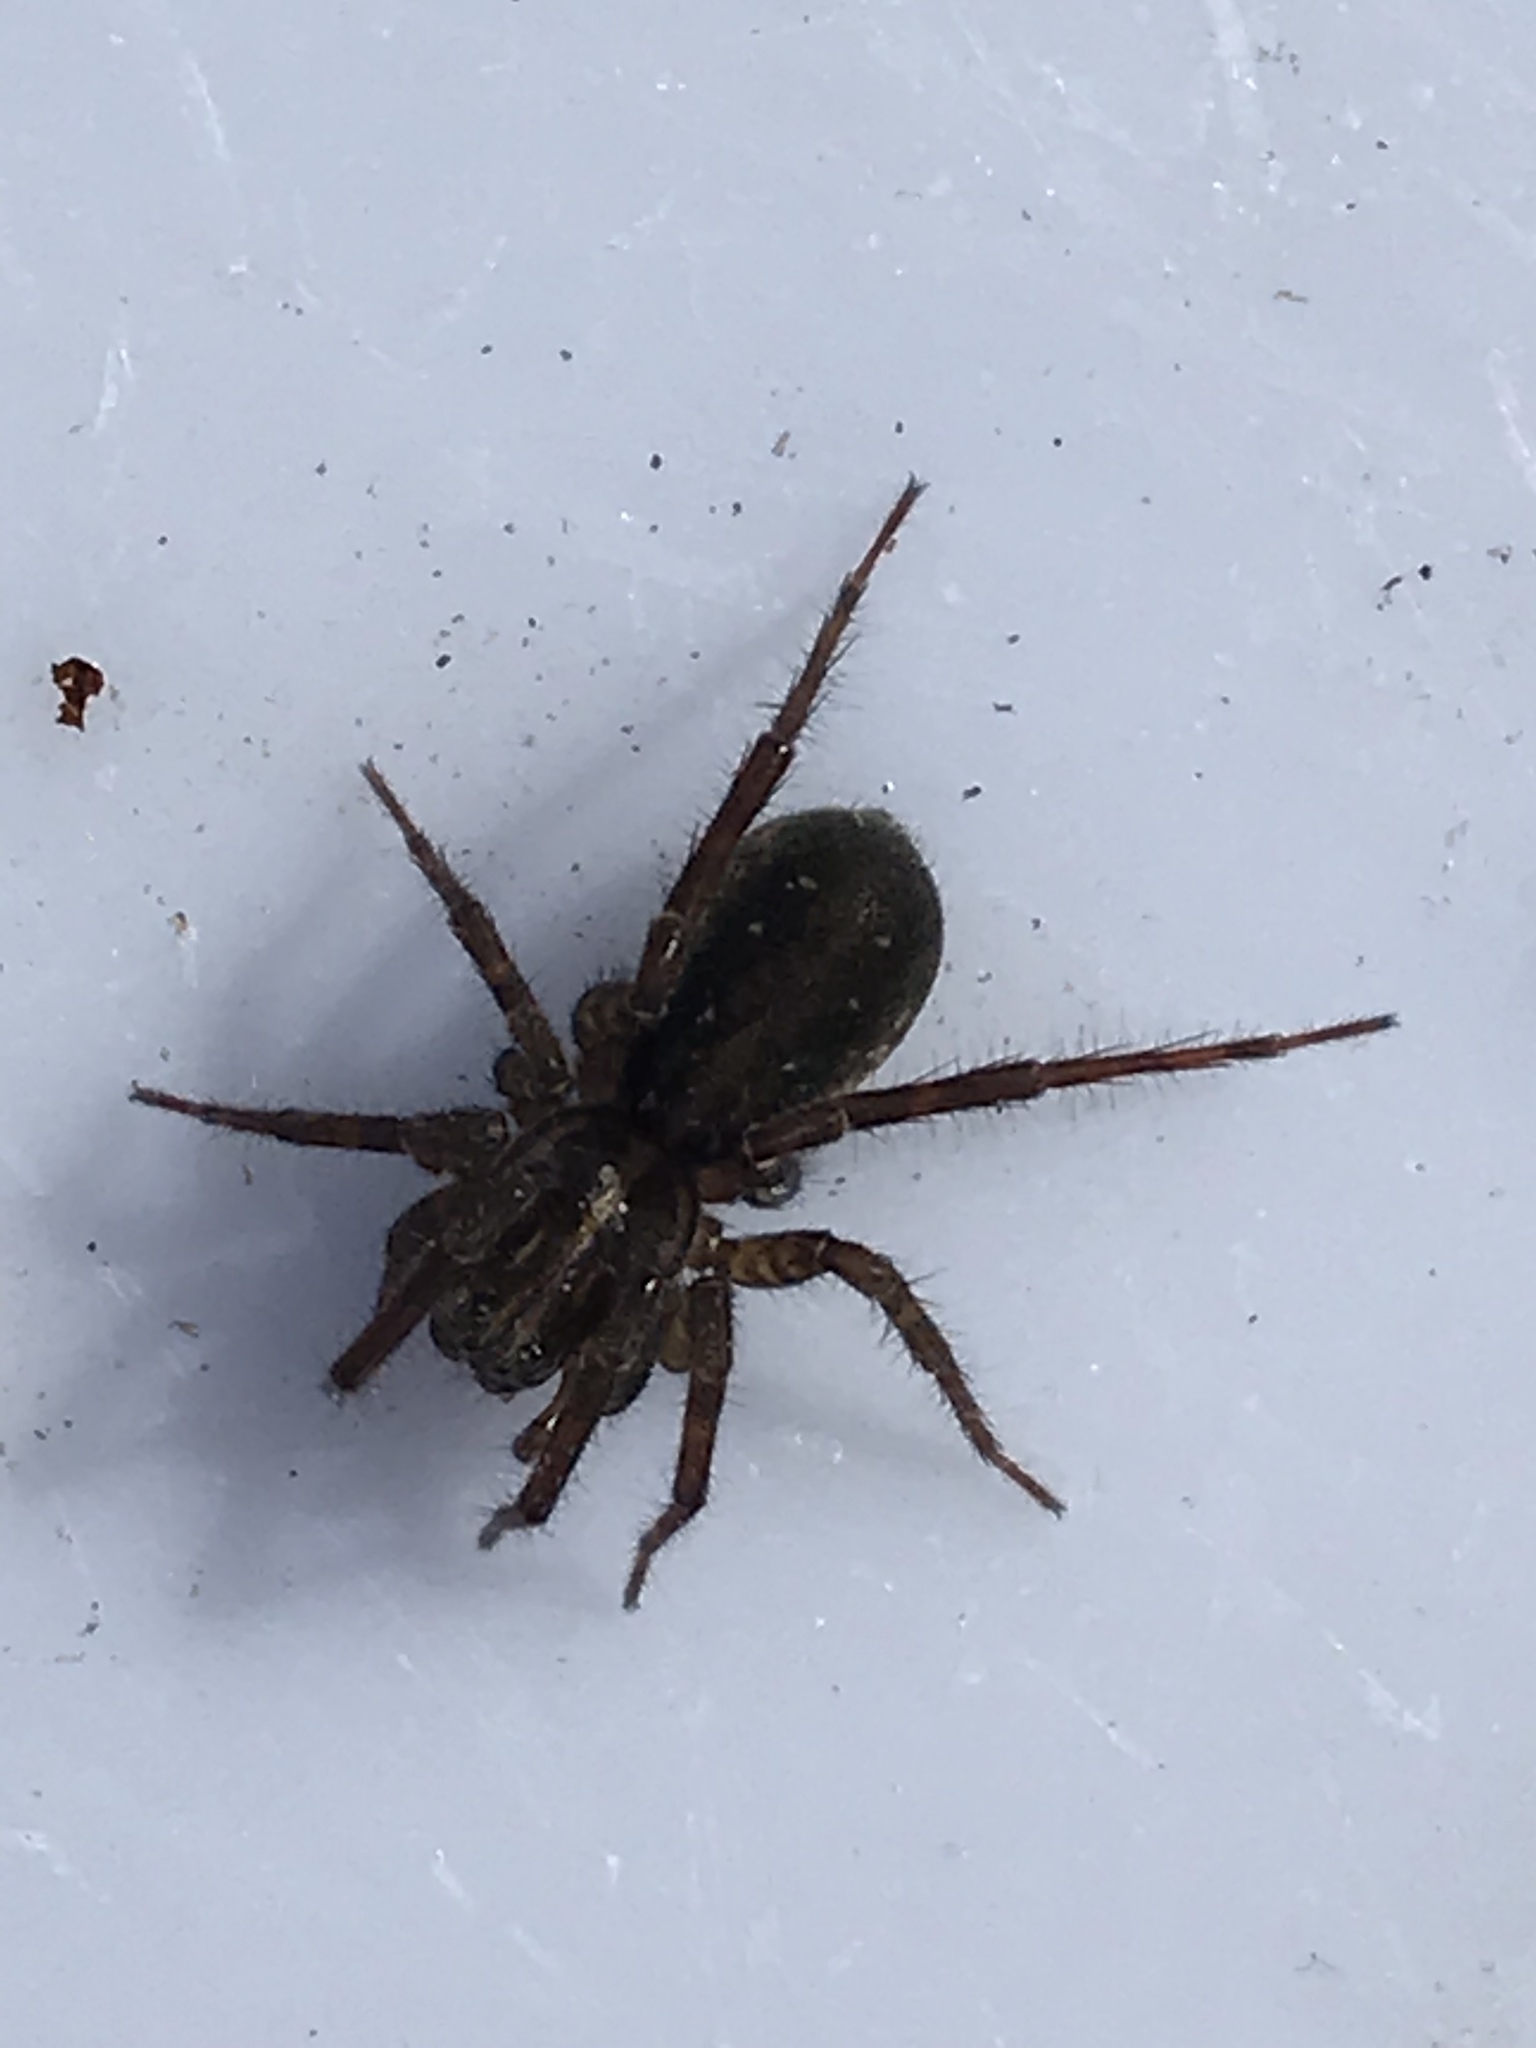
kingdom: Animalia
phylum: Arthropoda
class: Arachnida
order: Araneae
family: Lycosidae
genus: Allotrochosina
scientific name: Allotrochosina schauinslandi
